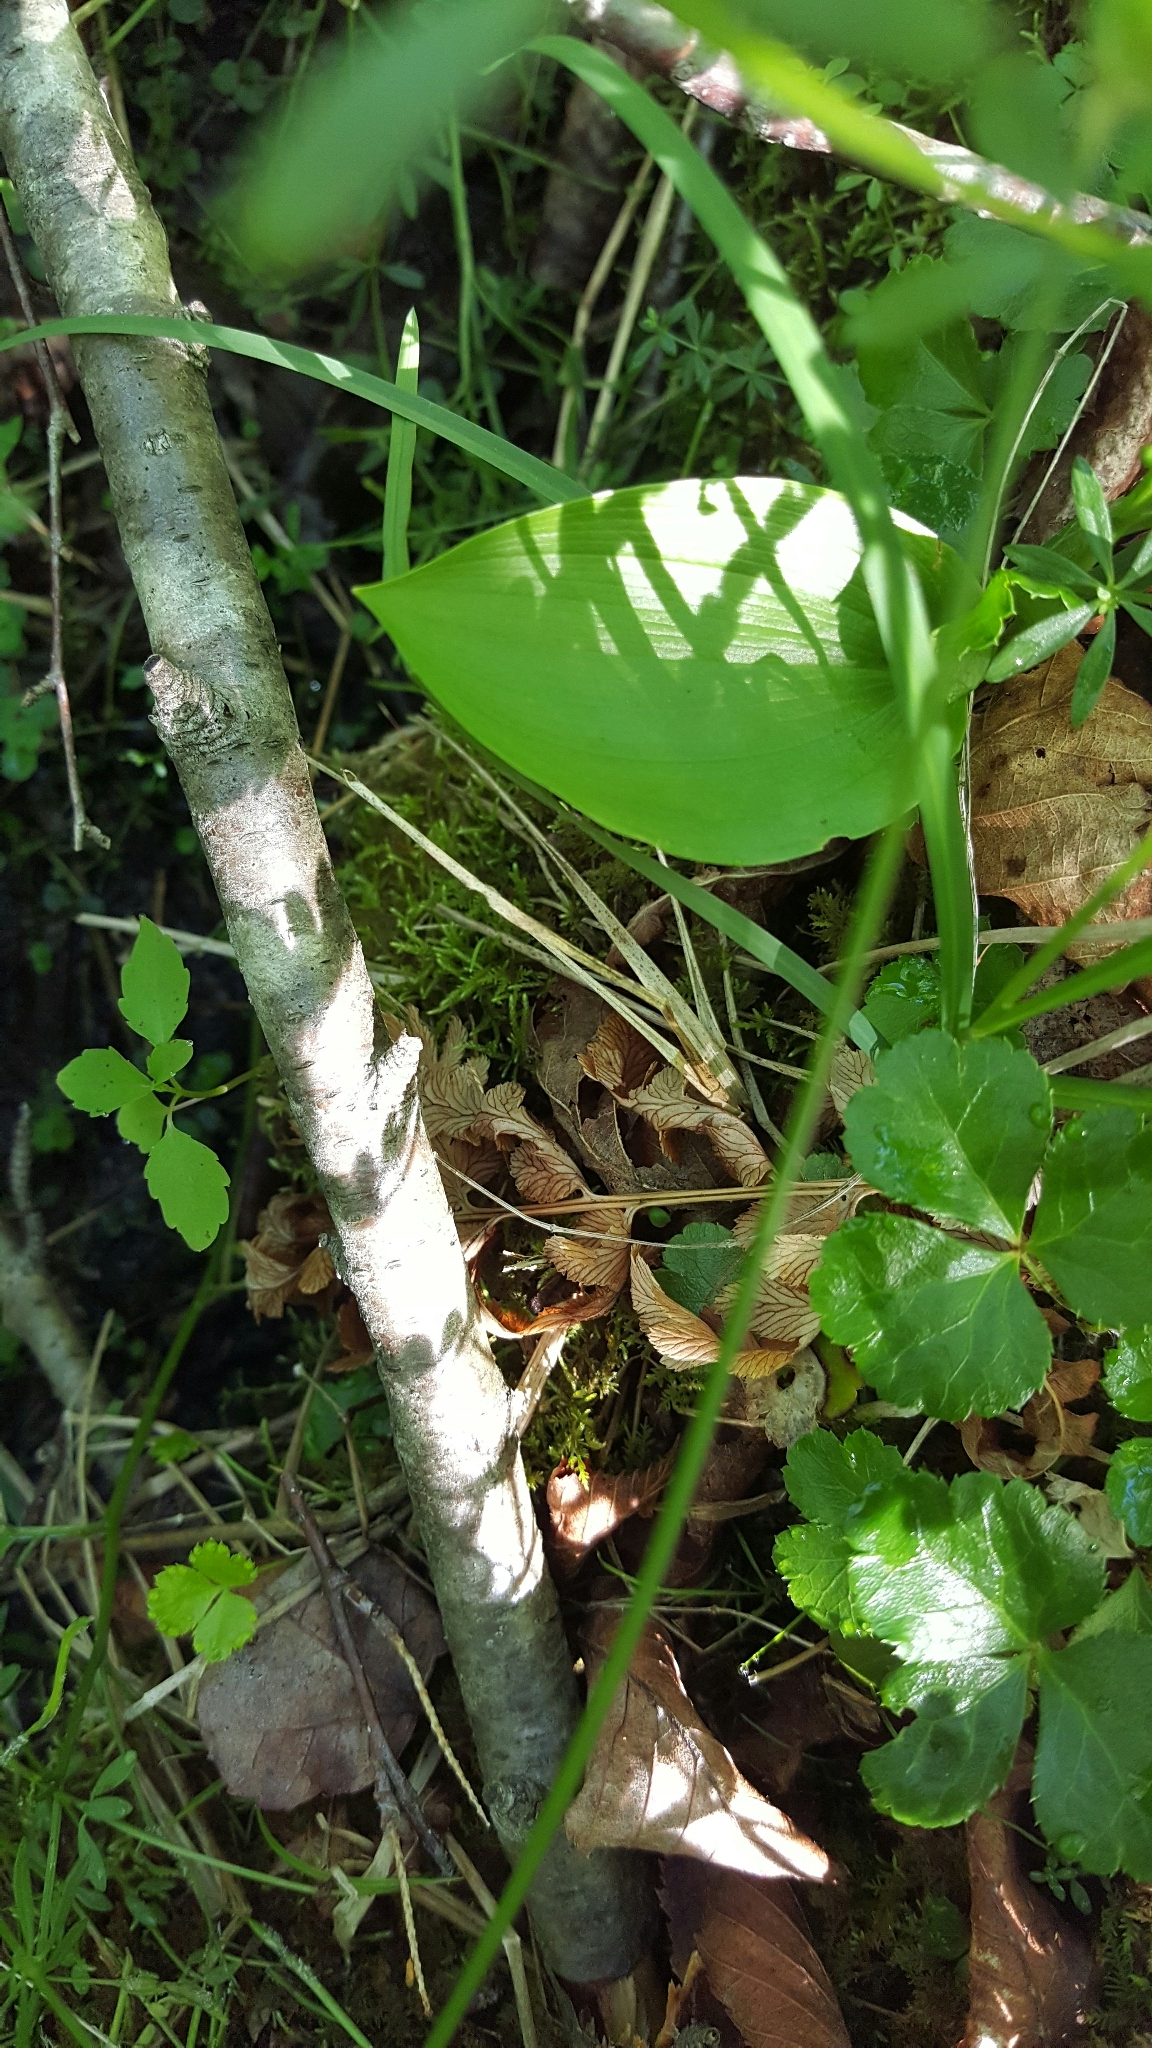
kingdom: Plantae
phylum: Tracheophyta
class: Liliopsida
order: Asparagales
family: Asparagaceae
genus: Maianthemum
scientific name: Maianthemum canadense
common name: False lily-of-the-valley
